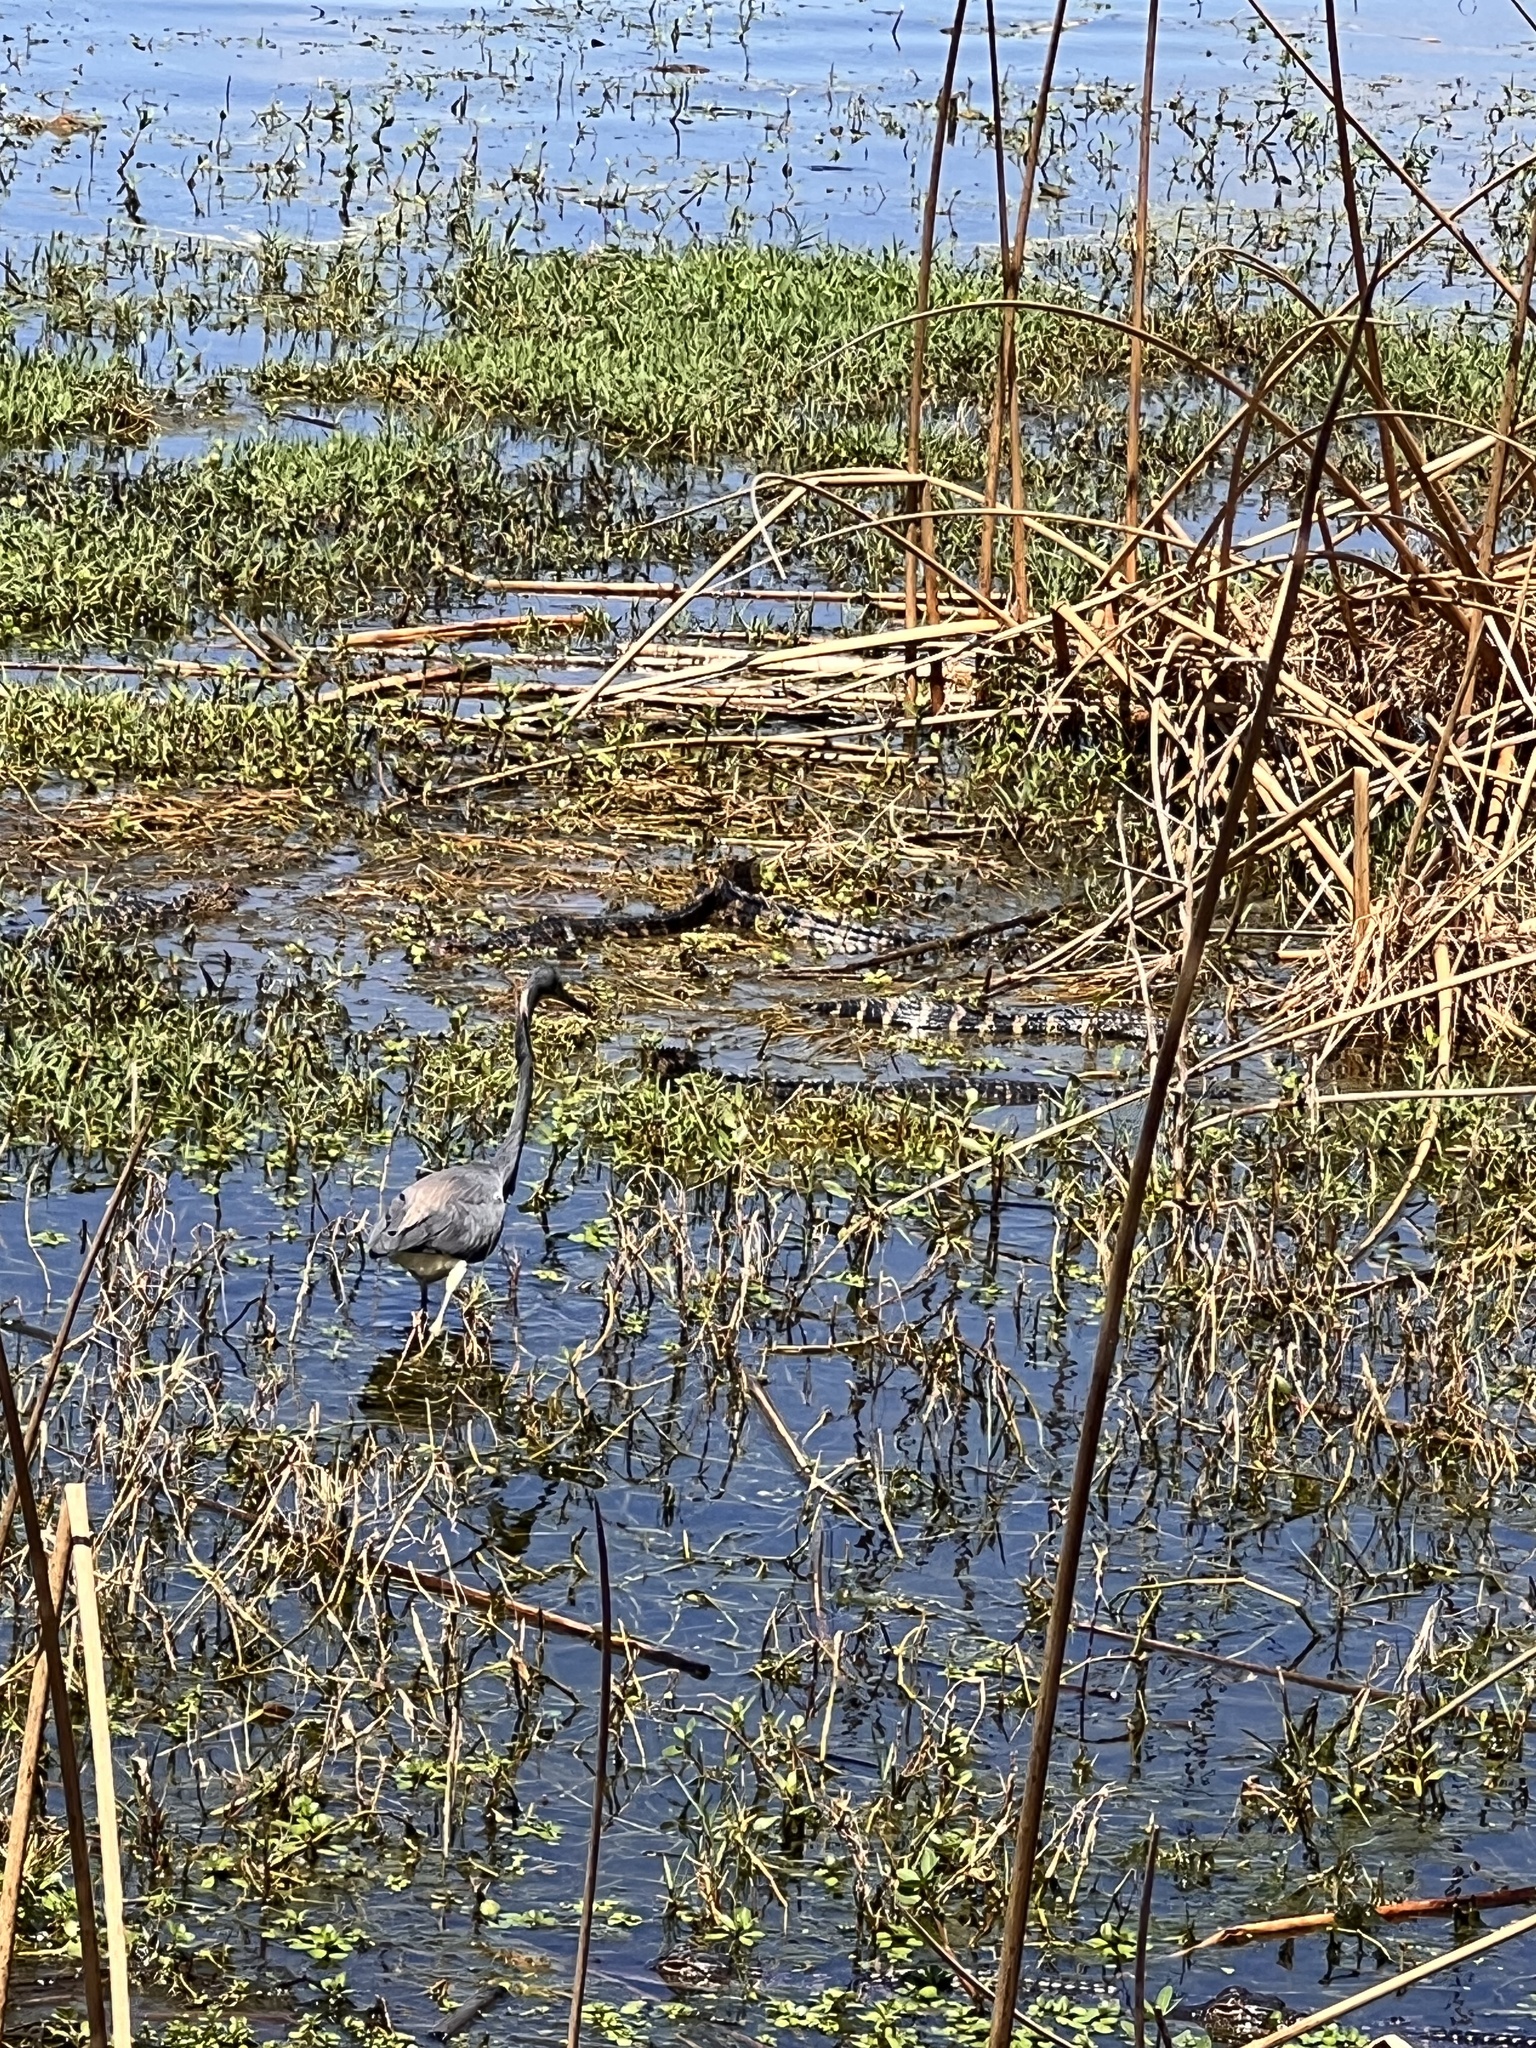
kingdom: Animalia
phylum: Chordata
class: Crocodylia
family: Alligatoridae
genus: Alligator
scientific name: Alligator mississippiensis
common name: American alligator
